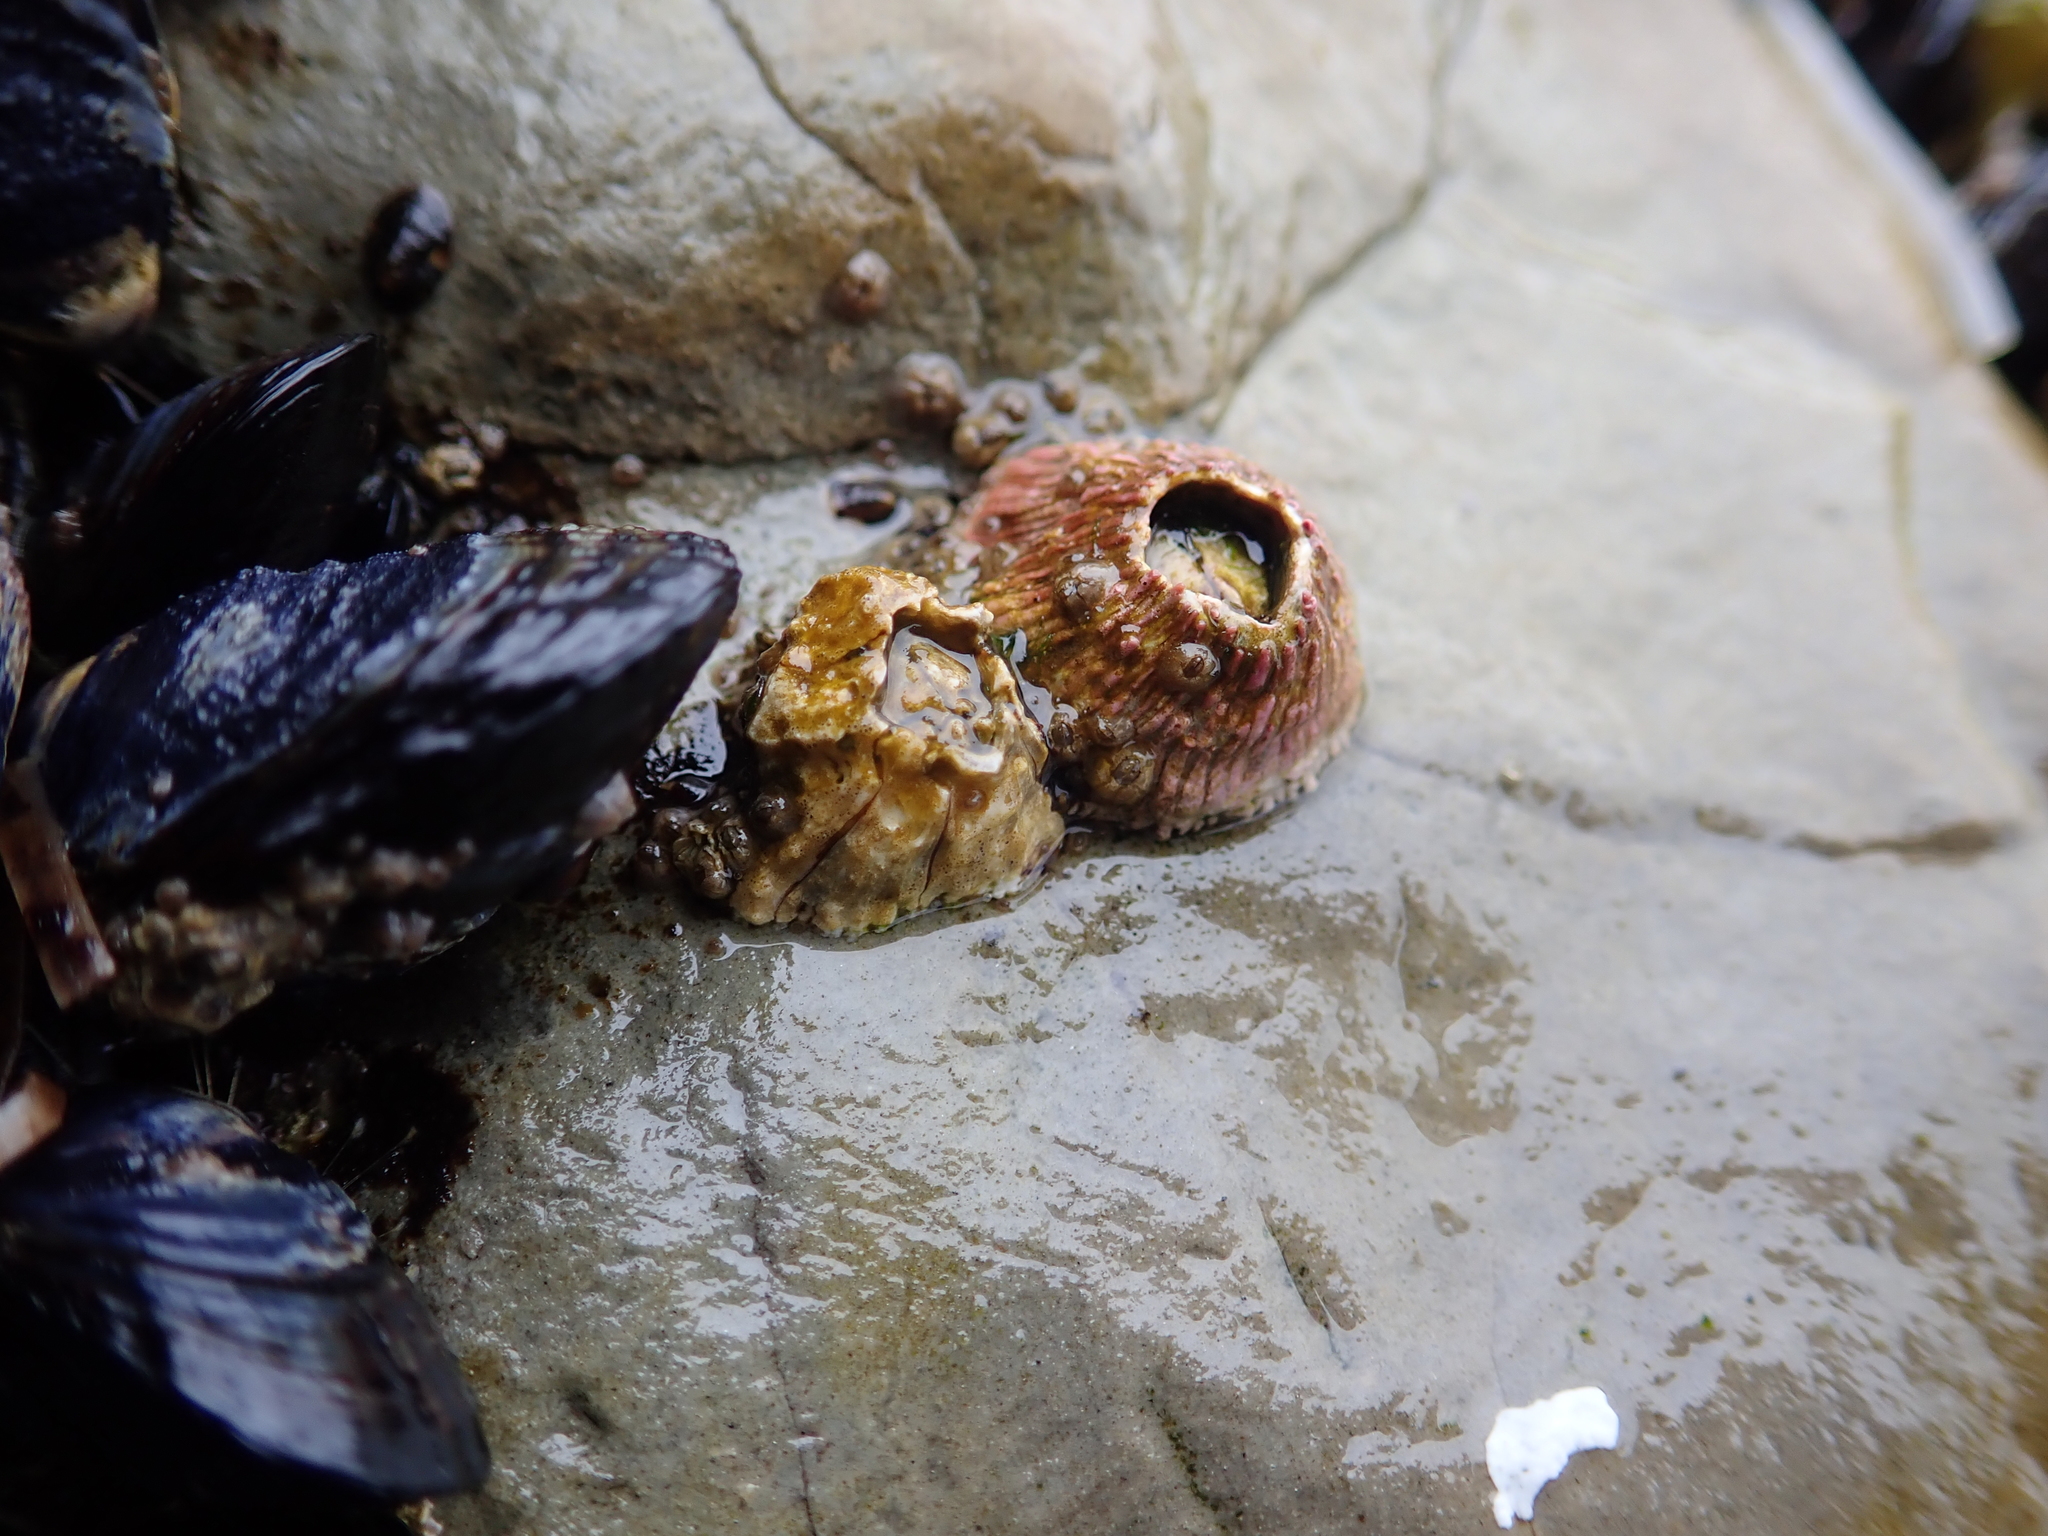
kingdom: Animalia
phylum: Arthropoda
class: Maxillopoda
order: Sessilia
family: Tetraclitidae
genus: Tetraclita
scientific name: Tetraclita rubescens
